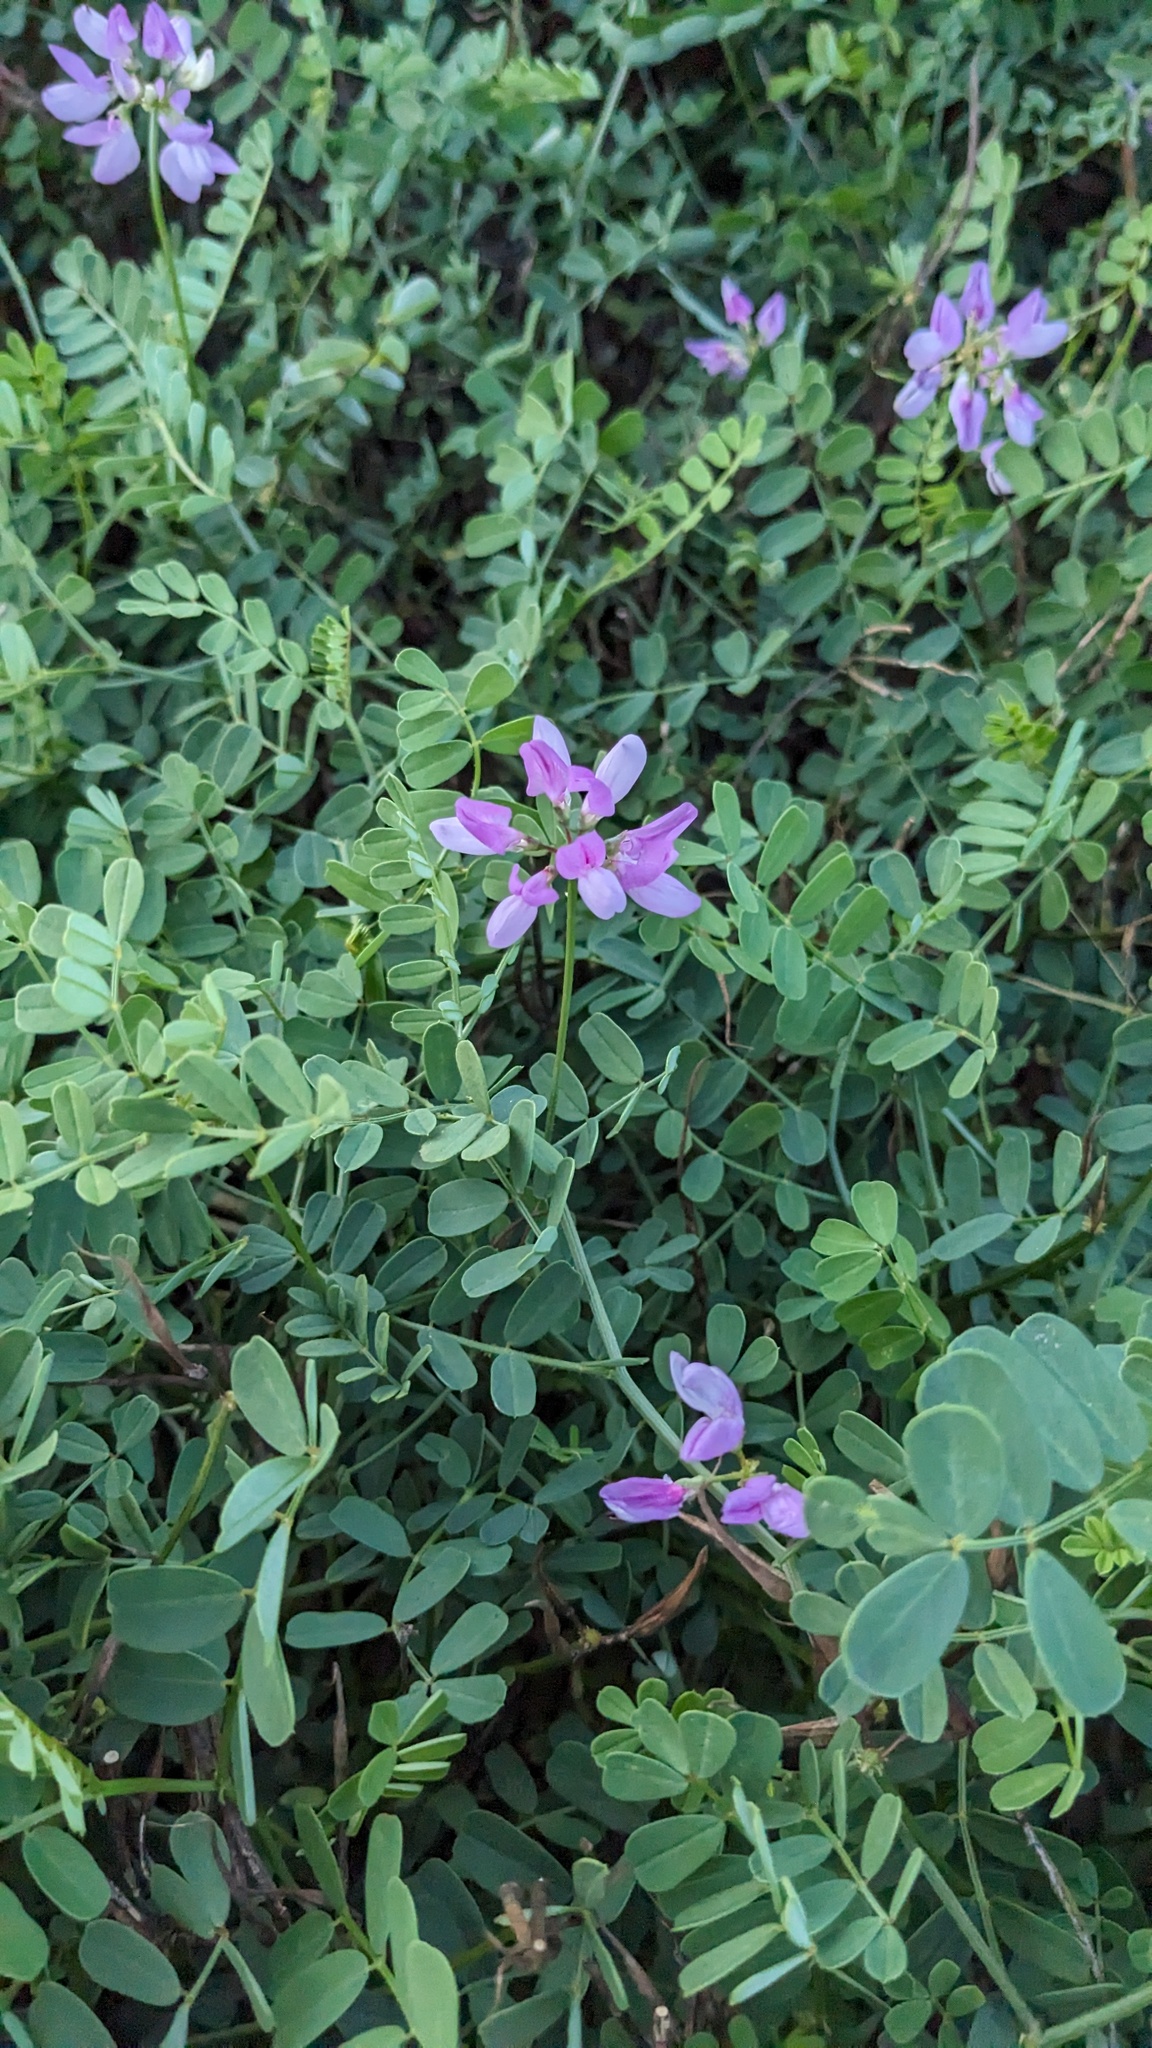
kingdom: Plantae
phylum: Tracheophyta
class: Magnoliopsida
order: Fabales
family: Fabaceae
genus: Coronilla
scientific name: Coronilla varia
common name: Crownvetch
